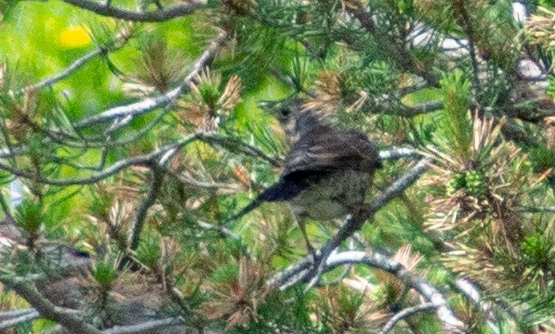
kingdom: Animalia
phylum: Chordata
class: Aves
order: Passeriformes
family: Turdidae
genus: Turdus
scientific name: Turdus pilaris
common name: Fieldfare
